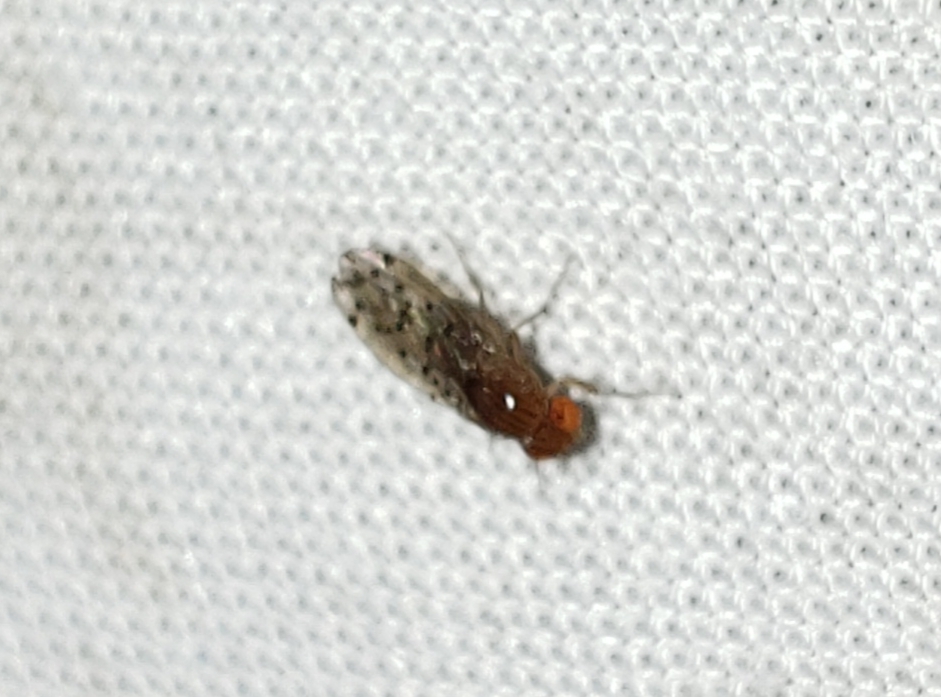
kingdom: Animalia
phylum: Arthropoda
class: Insecta
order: Diptera
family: Drosophilidae
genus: Drosophila
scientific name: Drosophila guttifera
